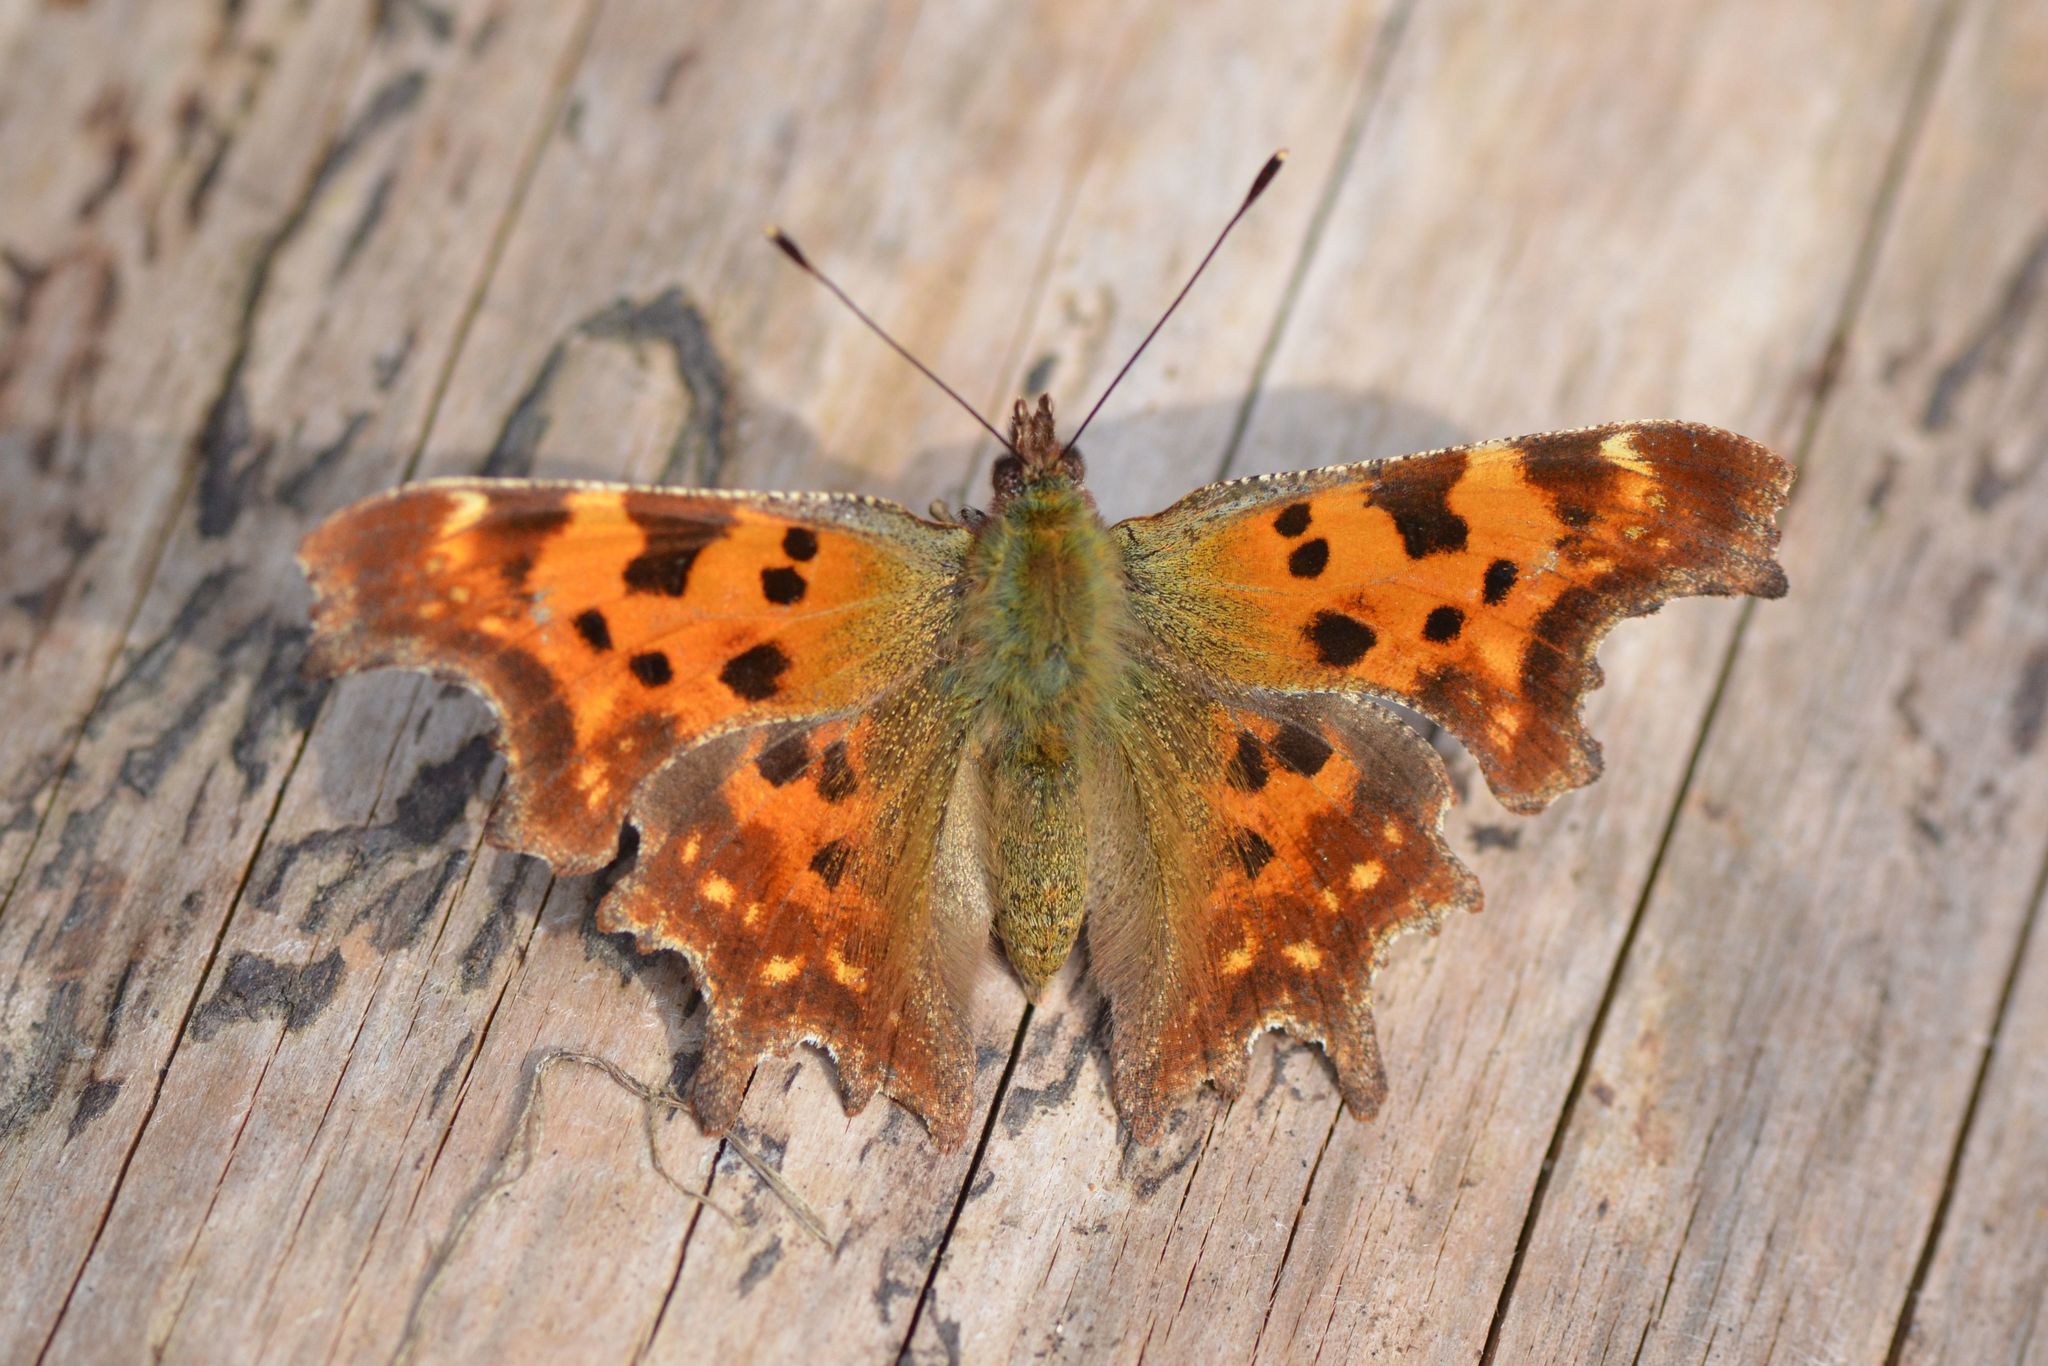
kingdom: Animalia
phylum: Arthropoda
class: Insecta
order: Lepidoptera
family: Nymphalidae
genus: Polygonia
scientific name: Polygonia c-album
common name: Comma
